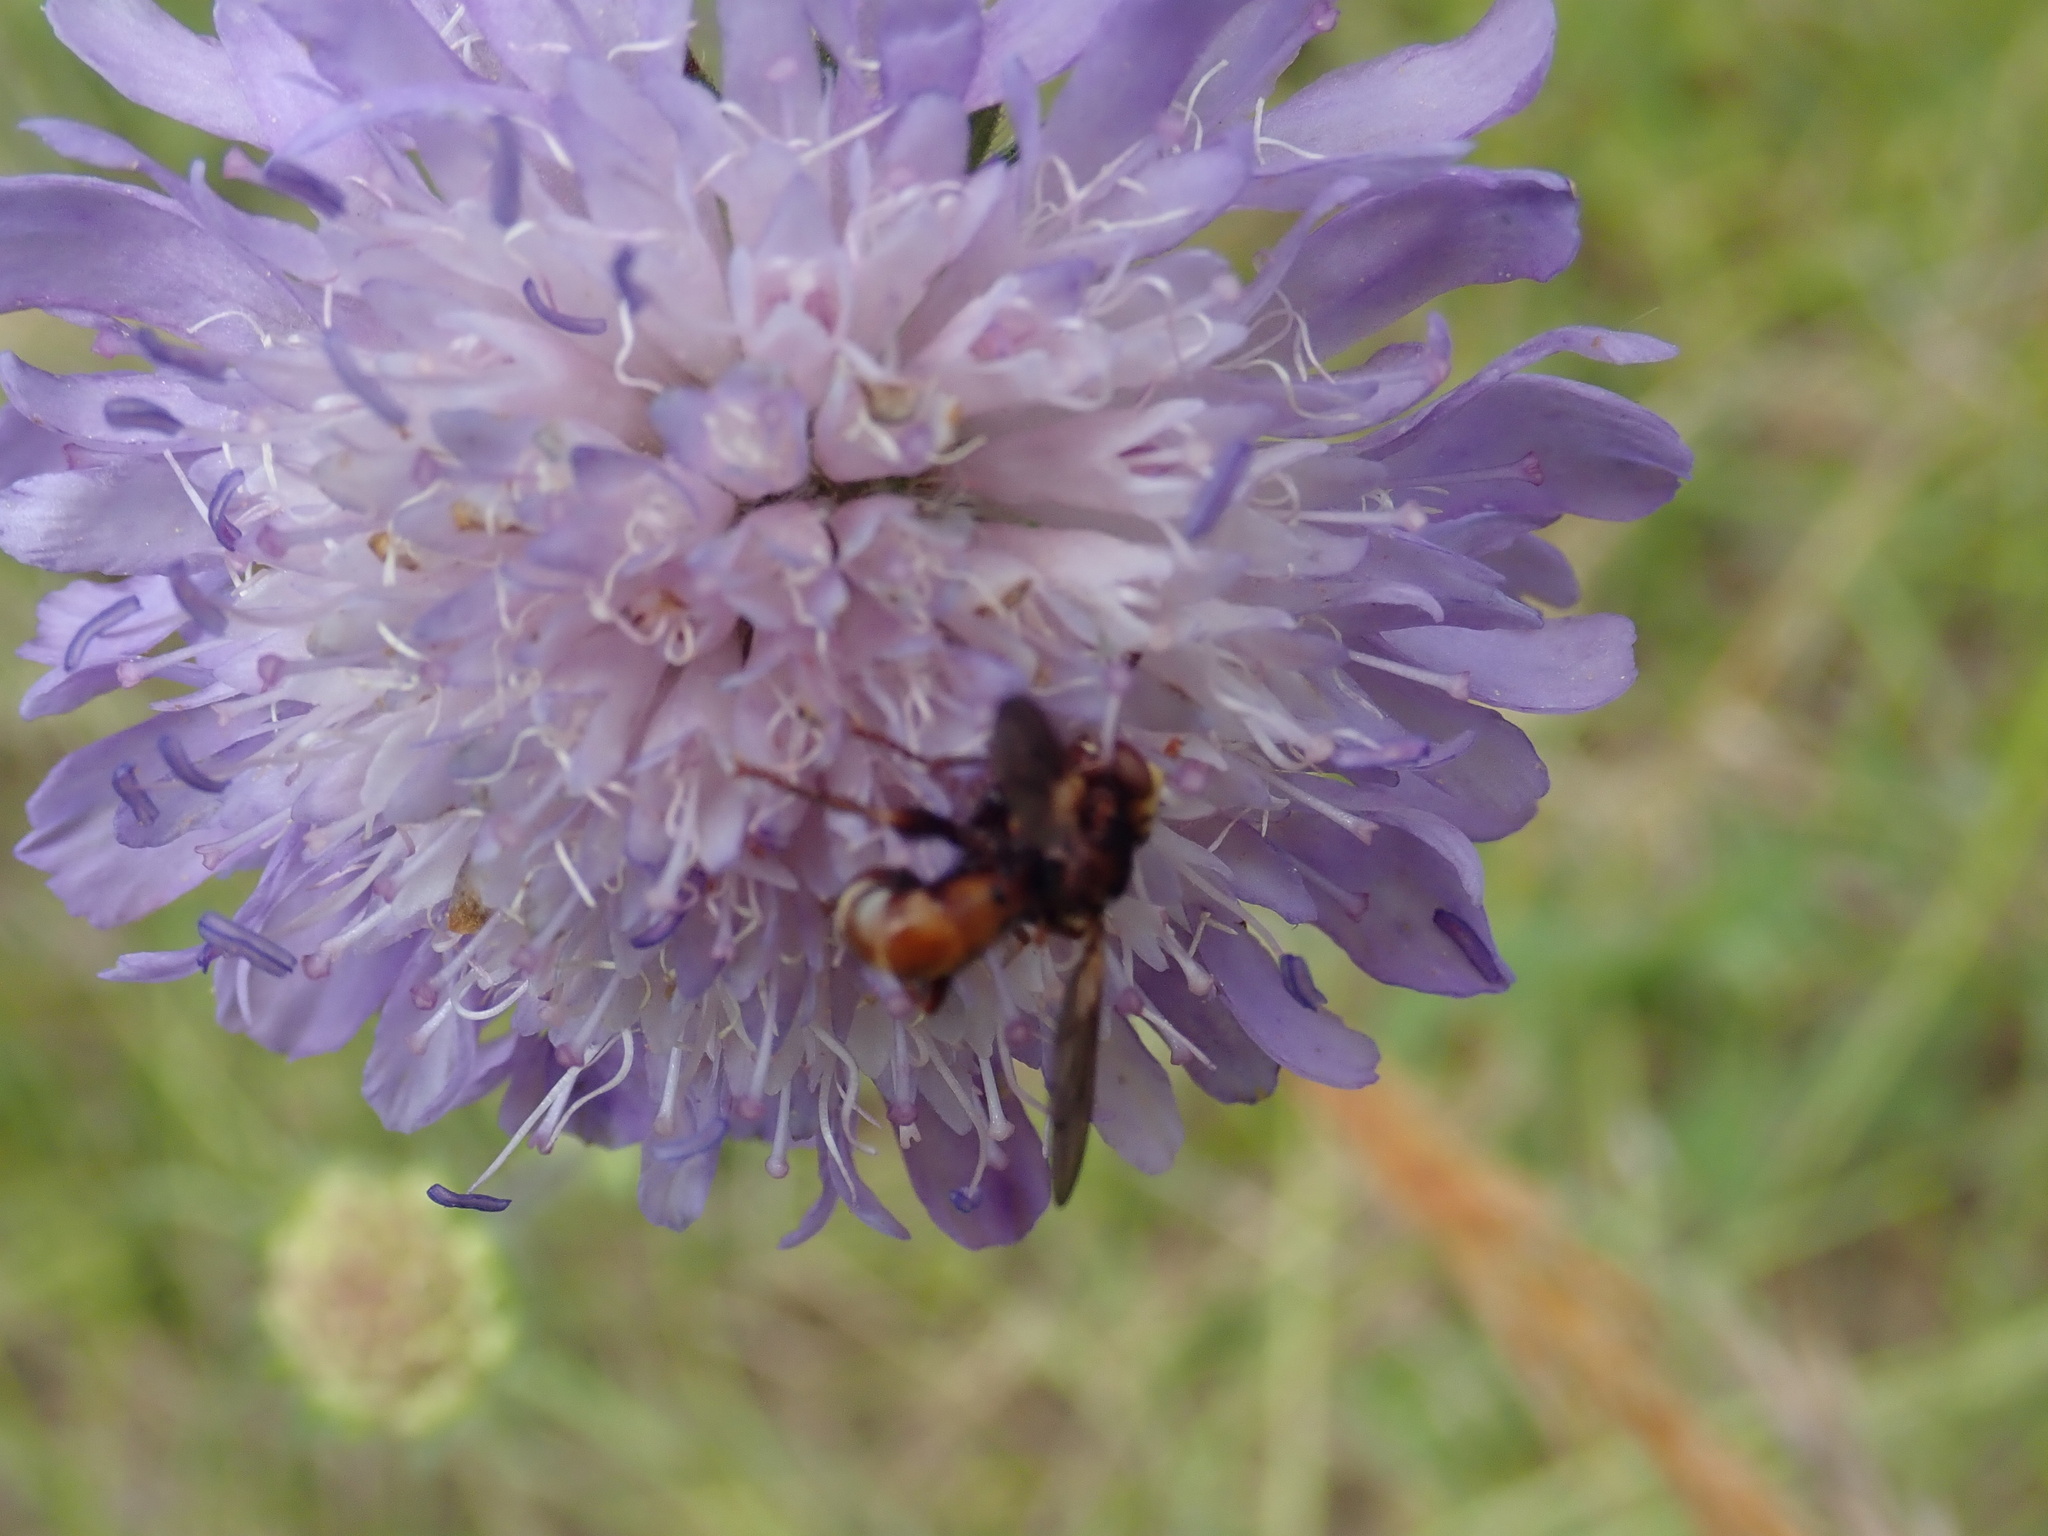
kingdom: Animalia
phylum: Arthropoda
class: Insecta
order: Diptera
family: Conopidae
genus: Sicus
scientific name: Sicus ferrugineus
